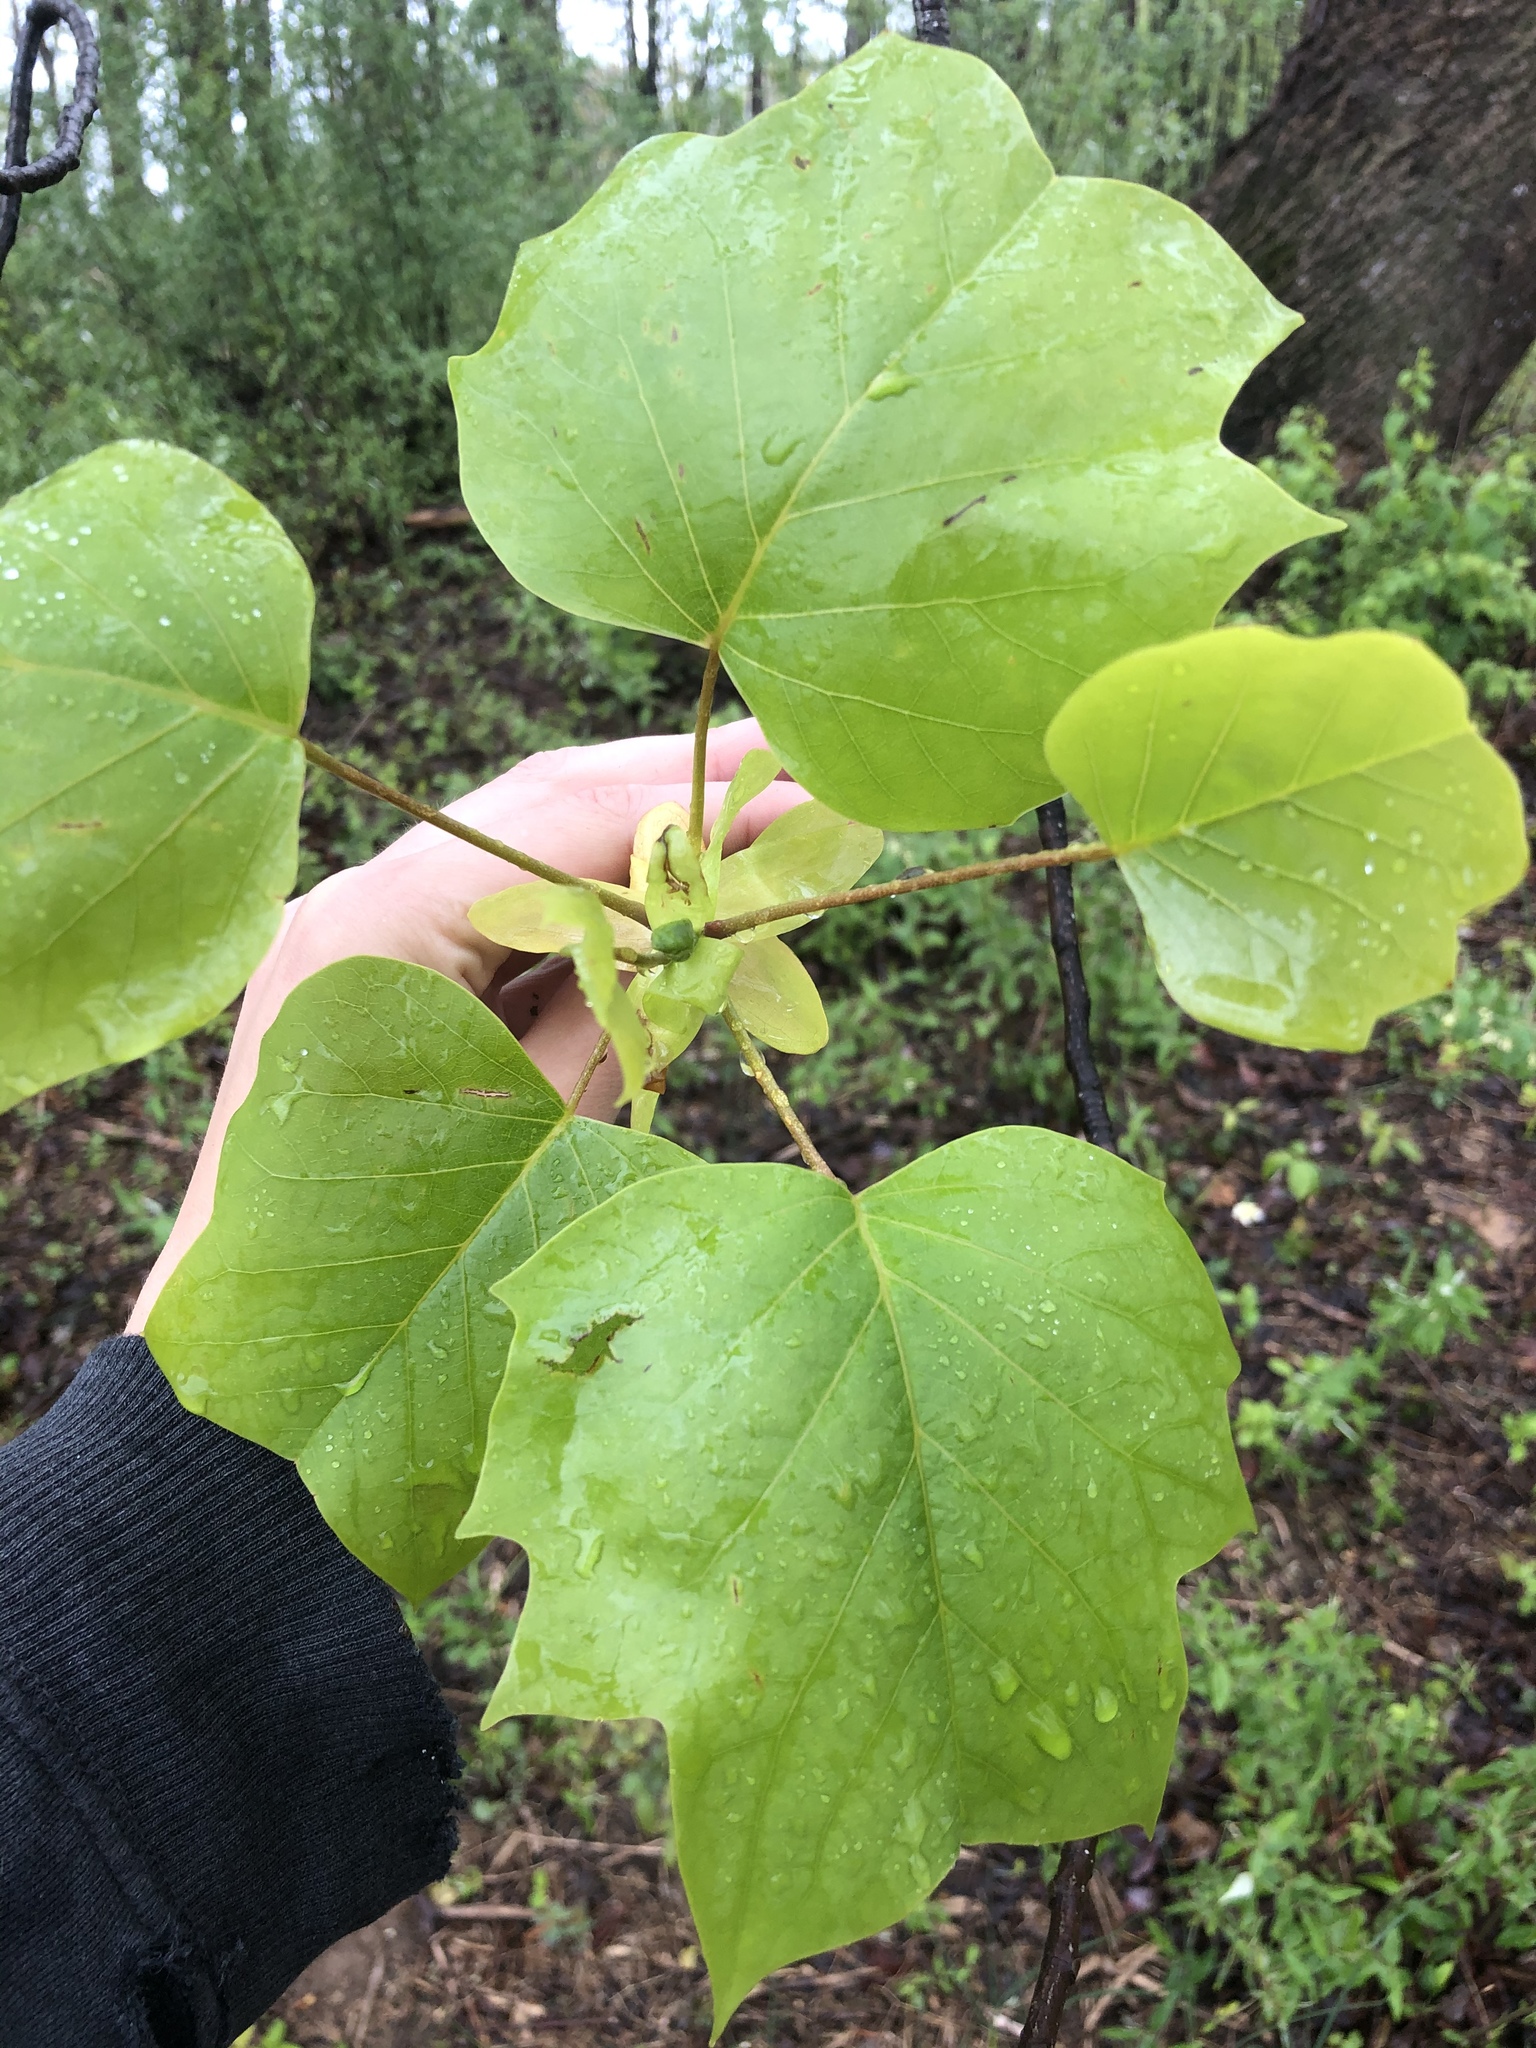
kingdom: Plantae
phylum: Tracheophyta
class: Magnoliopsida
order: Magnoliales
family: Magnoliaceae
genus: Liriodendron
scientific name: Liriodendron tulipifera
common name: Tulip tree
